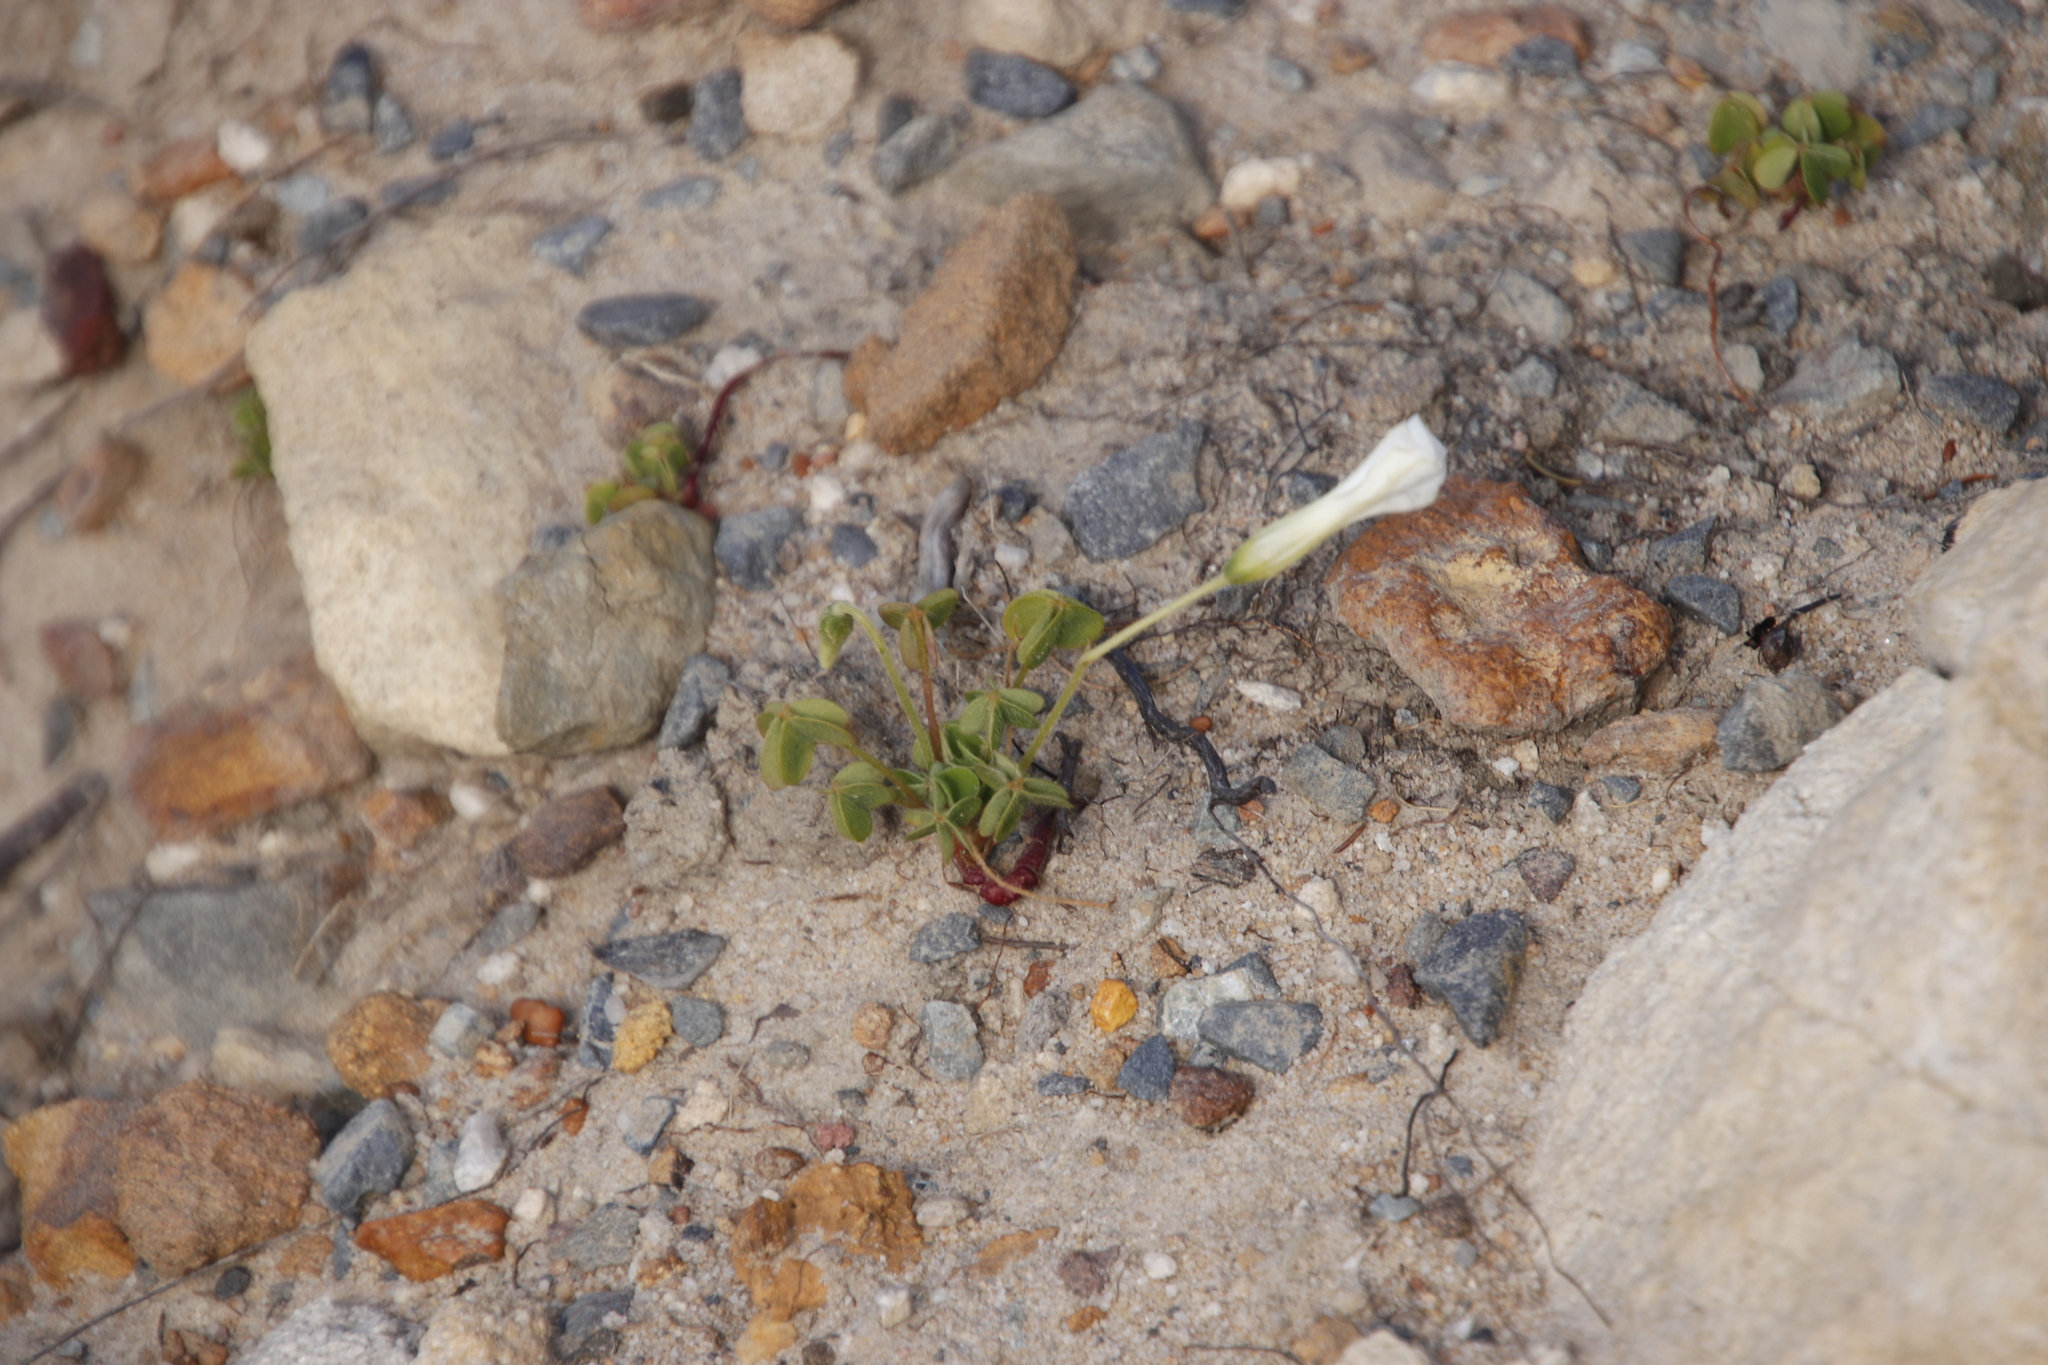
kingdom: Plantae
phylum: Tracheophyta
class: Magnoliopsida
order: Oxalidales
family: Oxalidaceae
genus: Oxalis
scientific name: Oxalis lanata
